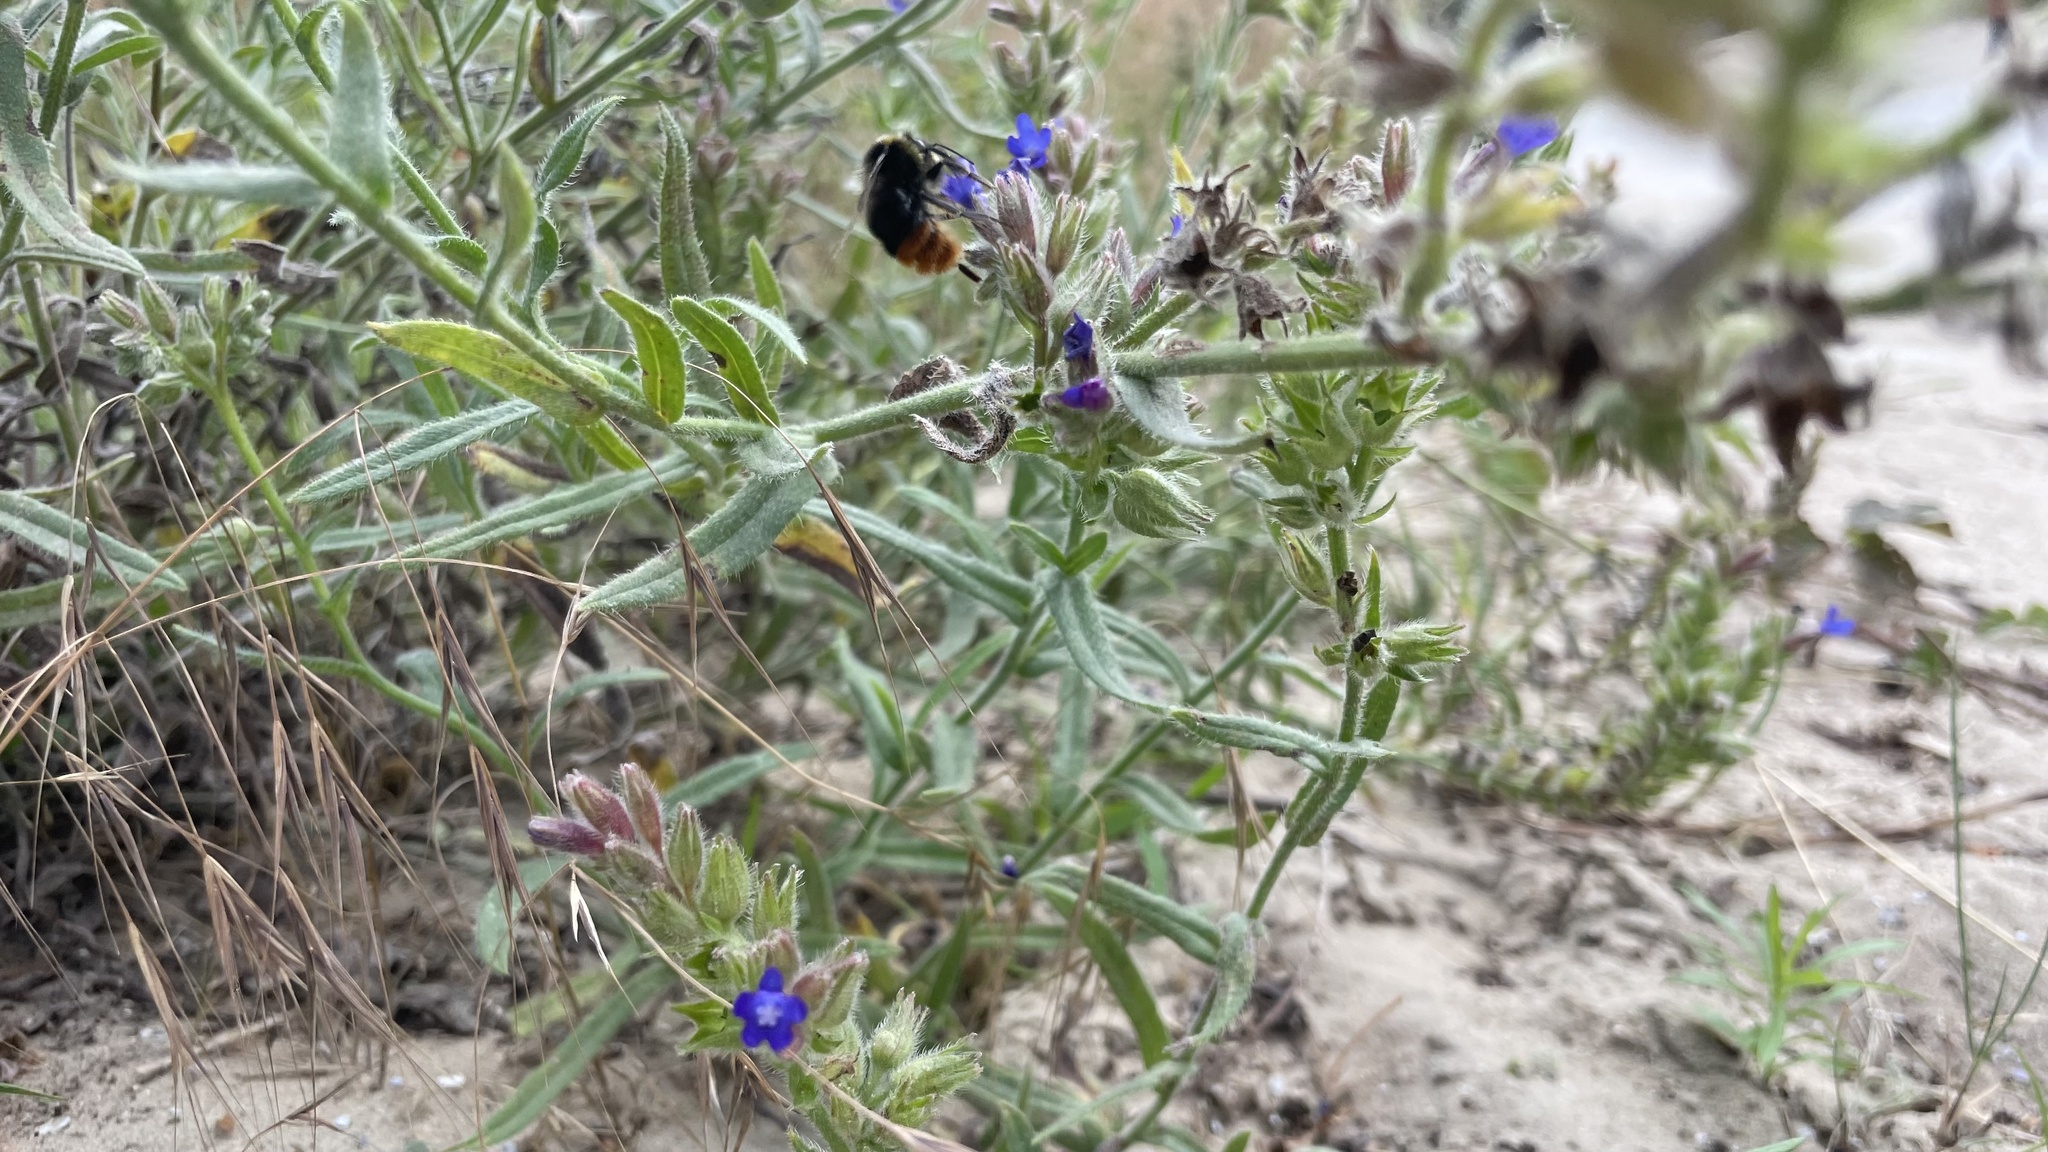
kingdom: Animalia
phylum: Arthropoda
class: Insecta
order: Hymenoptera
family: Apidae
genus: Bombus
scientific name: Bombus lapidarius
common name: Large red-tailed humble-bee
